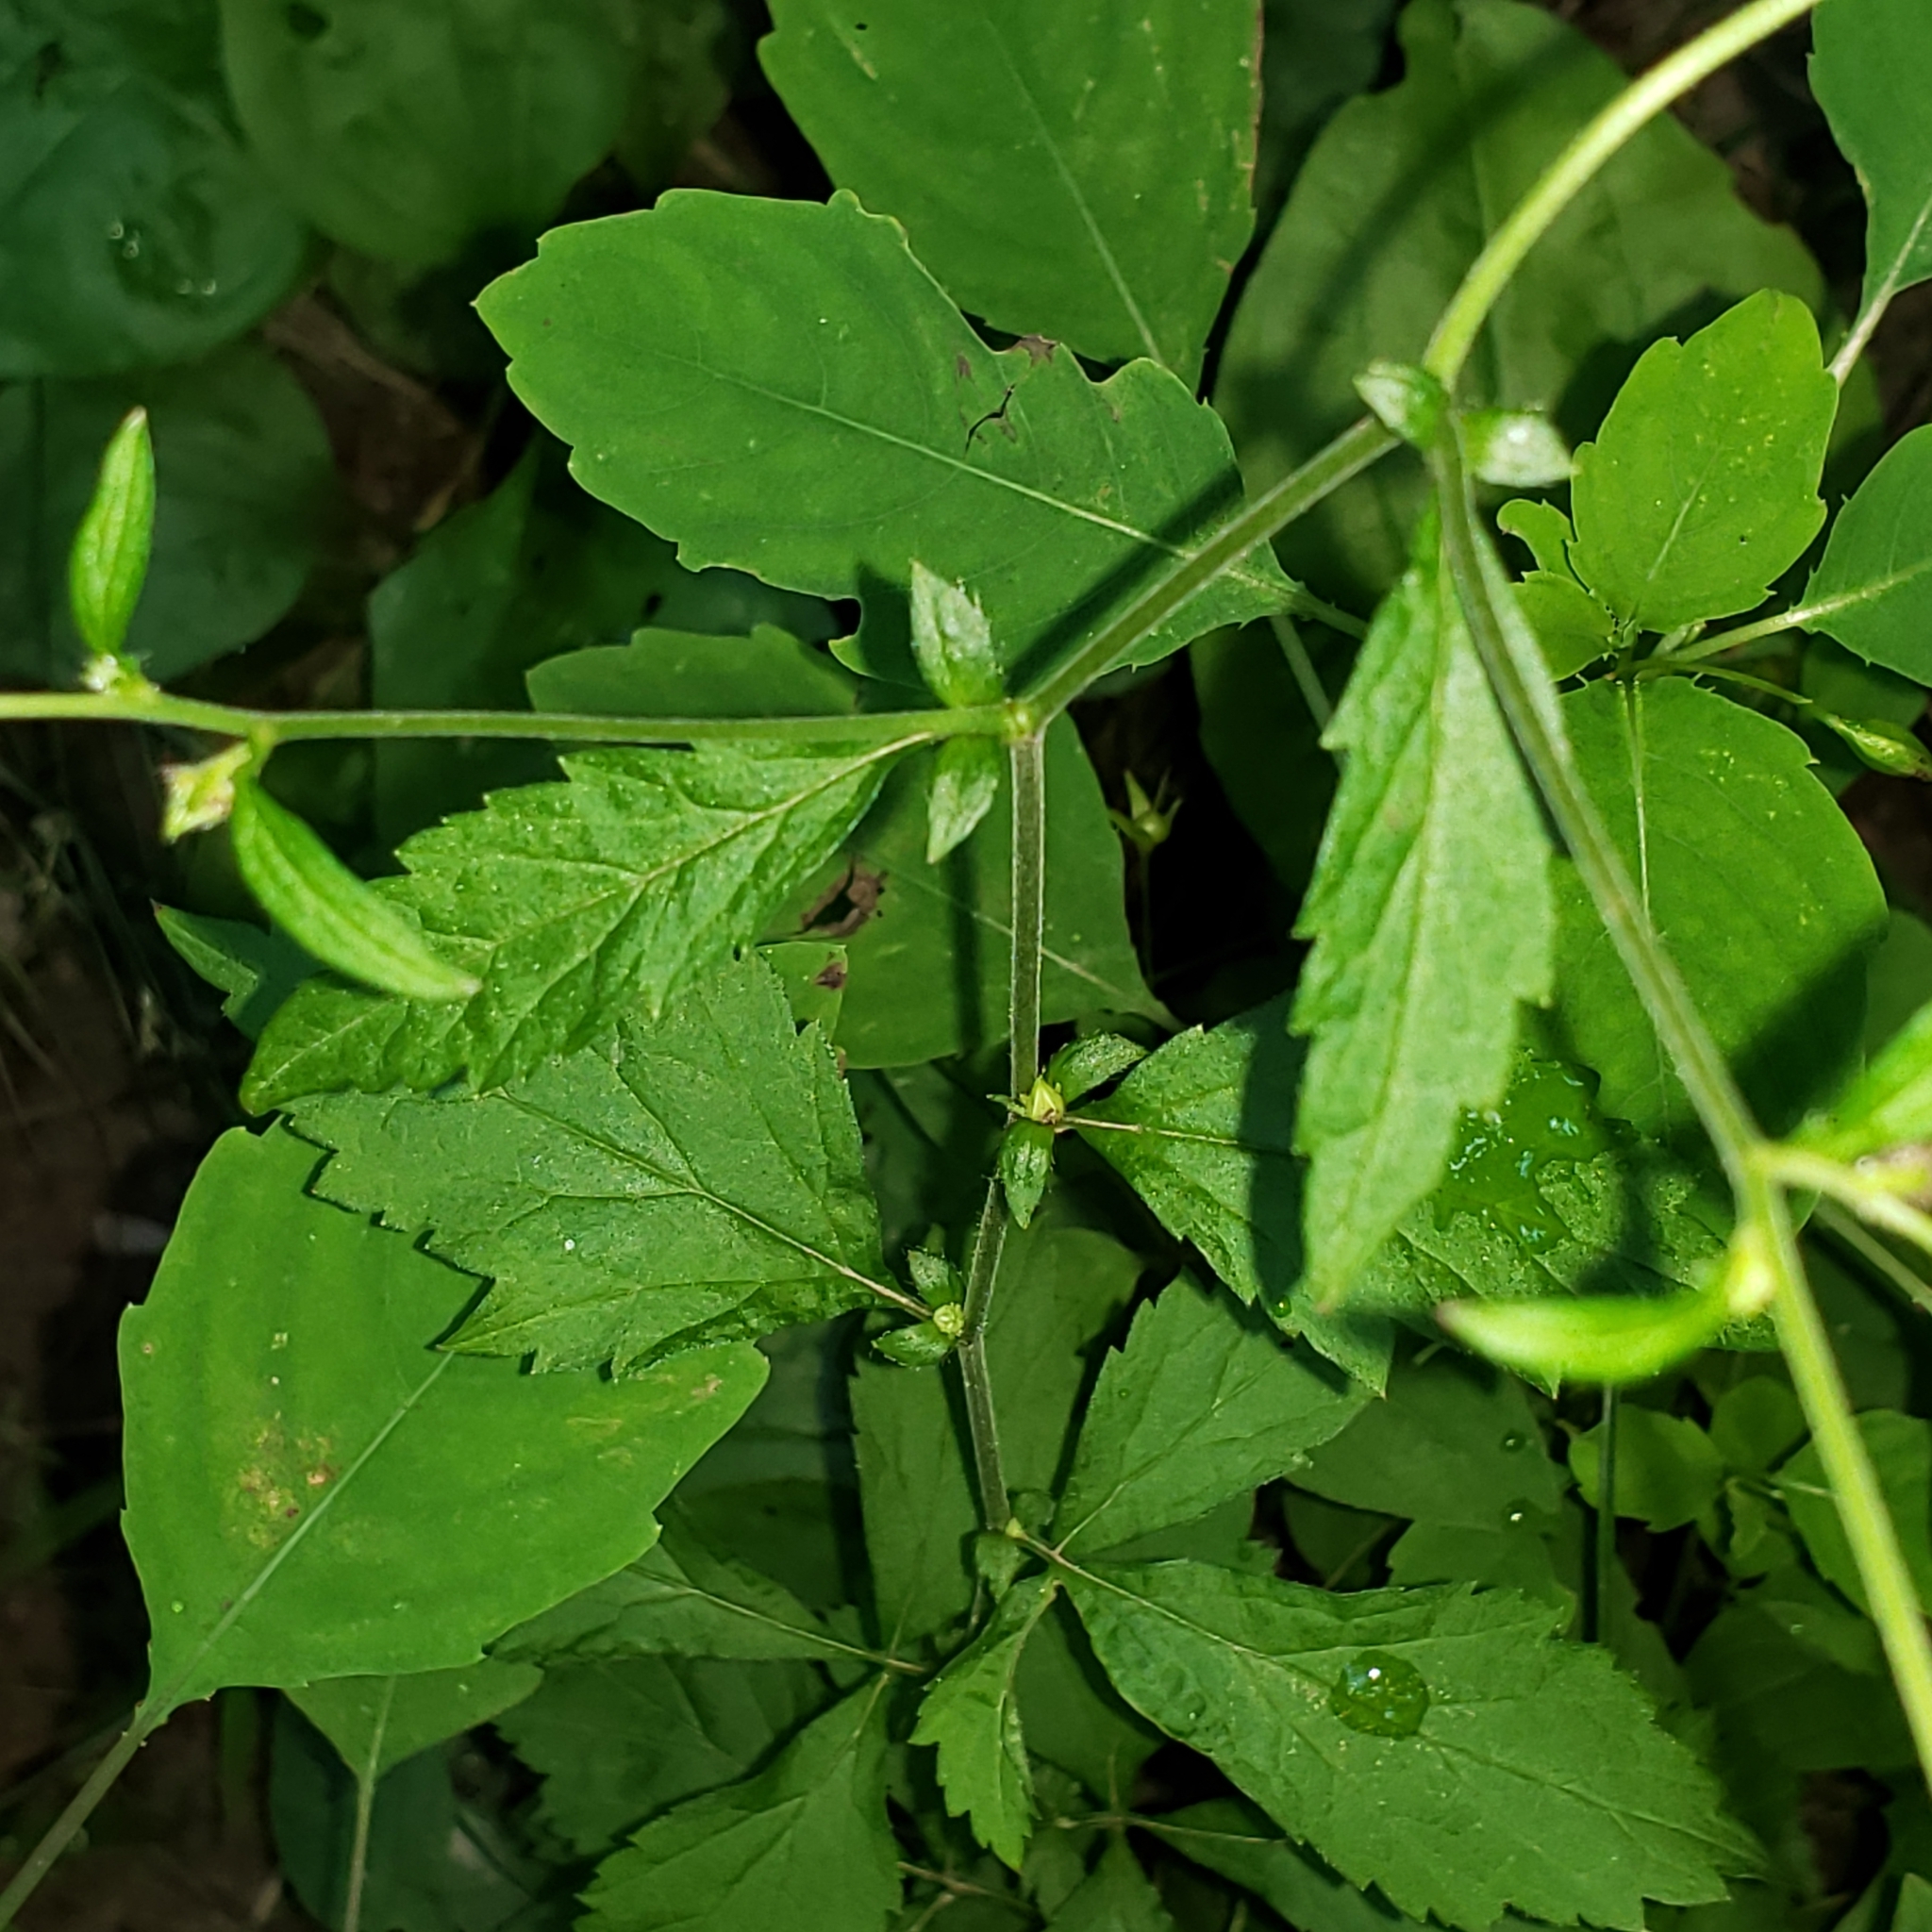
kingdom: Plantae
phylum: Tracheophyta
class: Magnoliopsida
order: Rosales
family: Rosaceae
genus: Geum
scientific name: Geum canadense
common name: White avens
